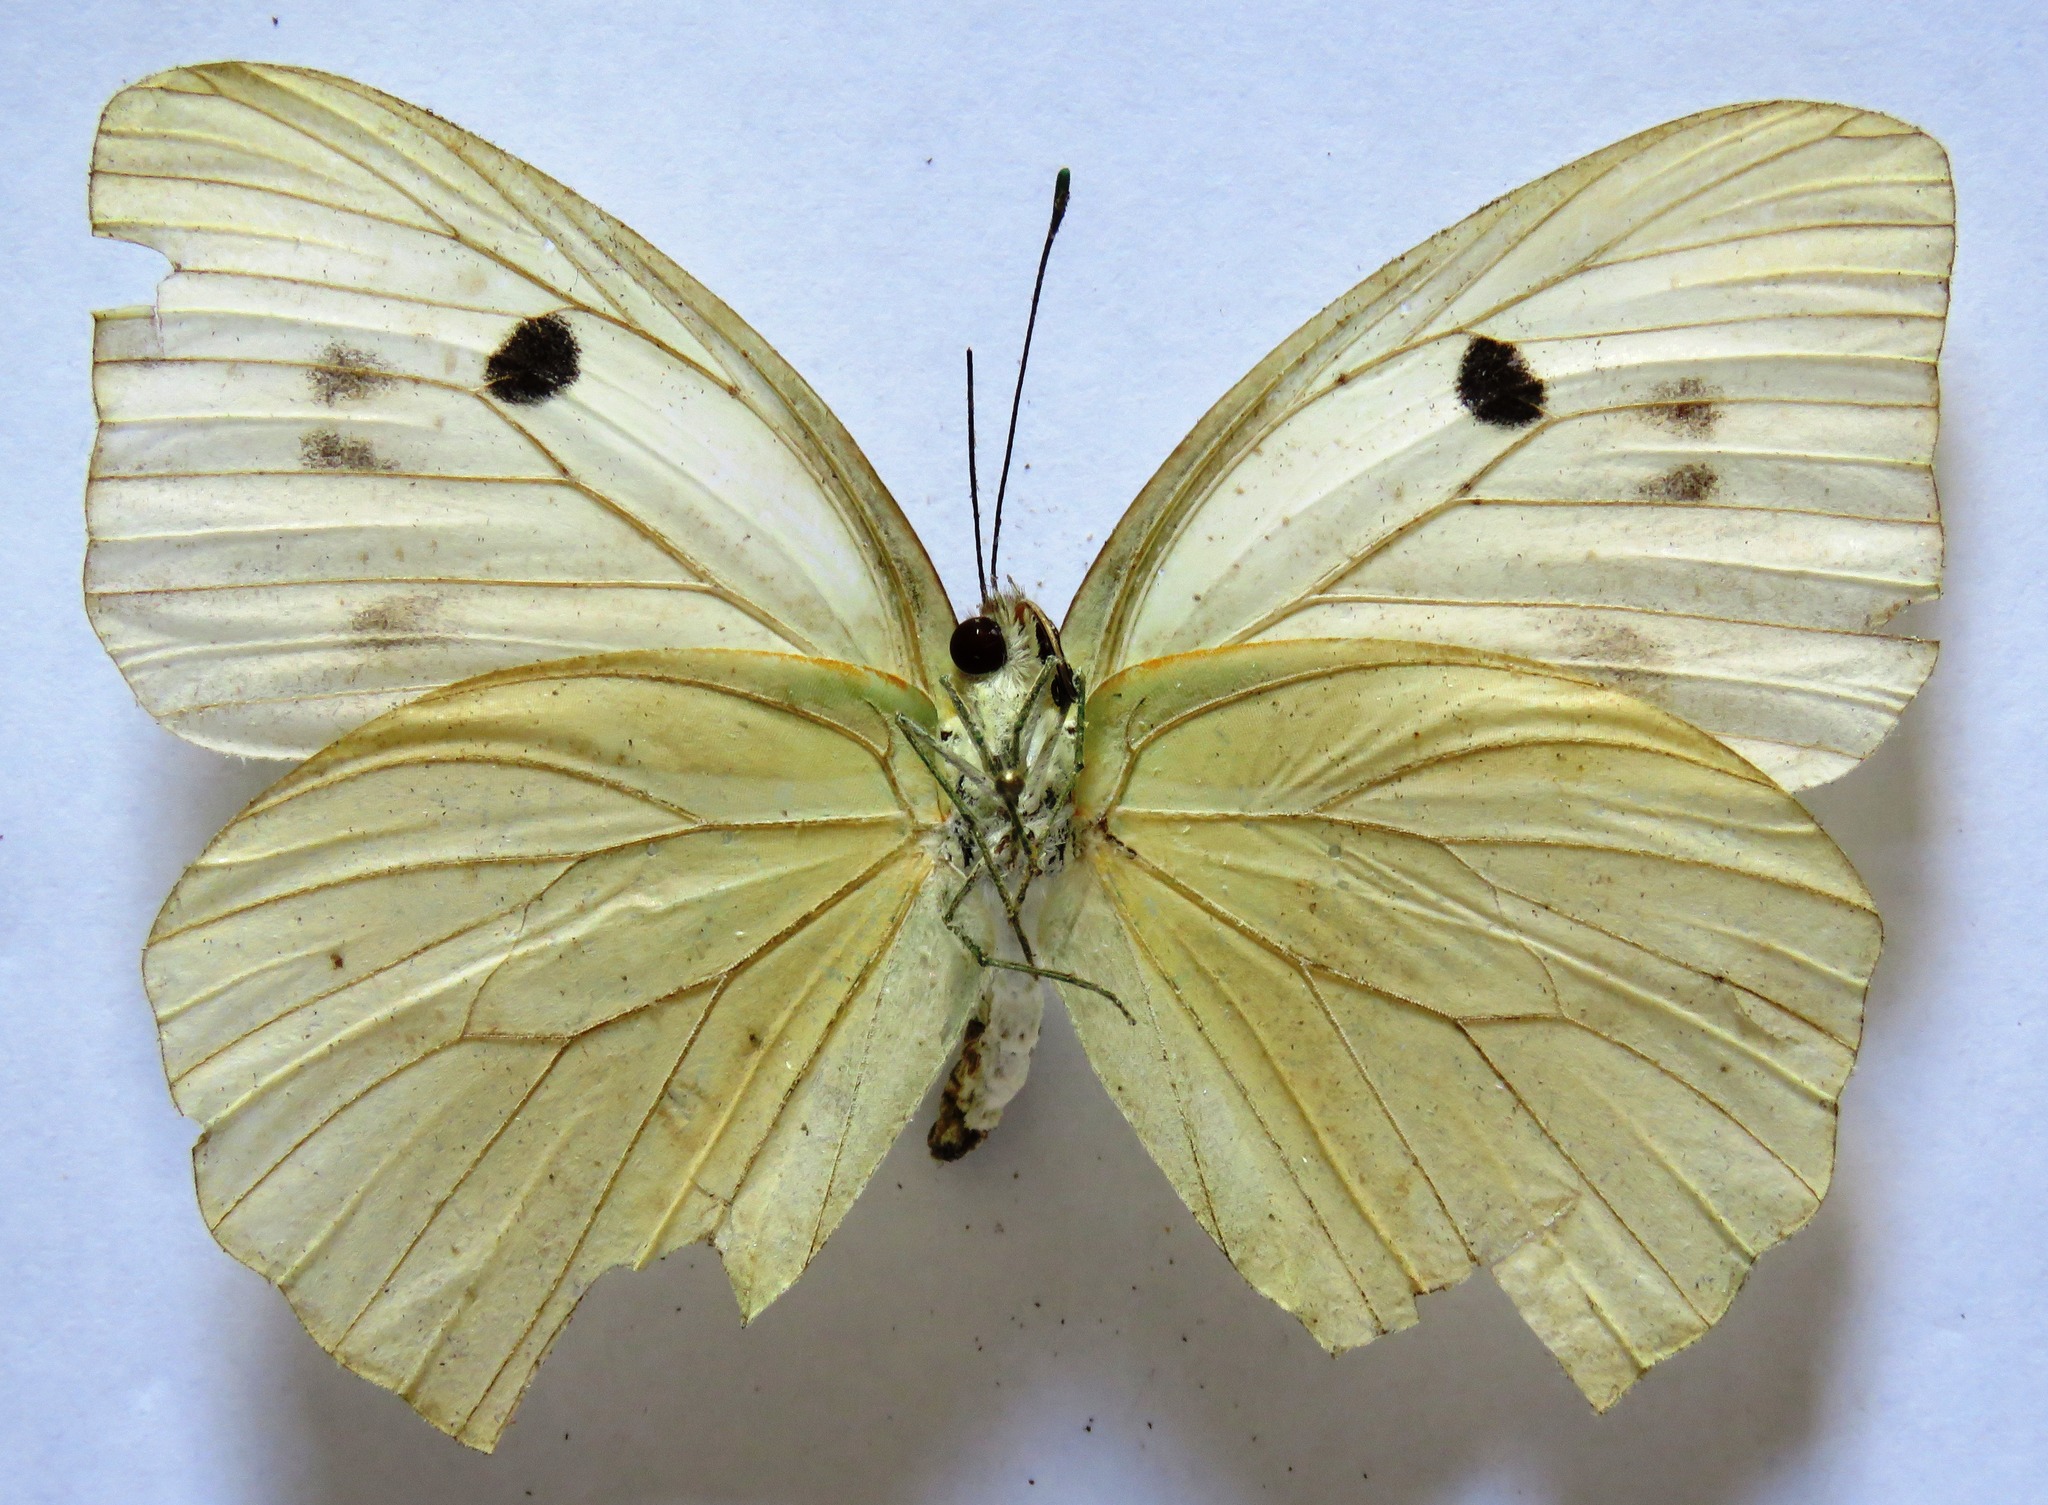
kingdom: Animalia
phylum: Arthropoda
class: Insecta
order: Lepidoptera
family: Pieridae
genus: Ganyra
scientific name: Ganyra josephina
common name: Giant white
